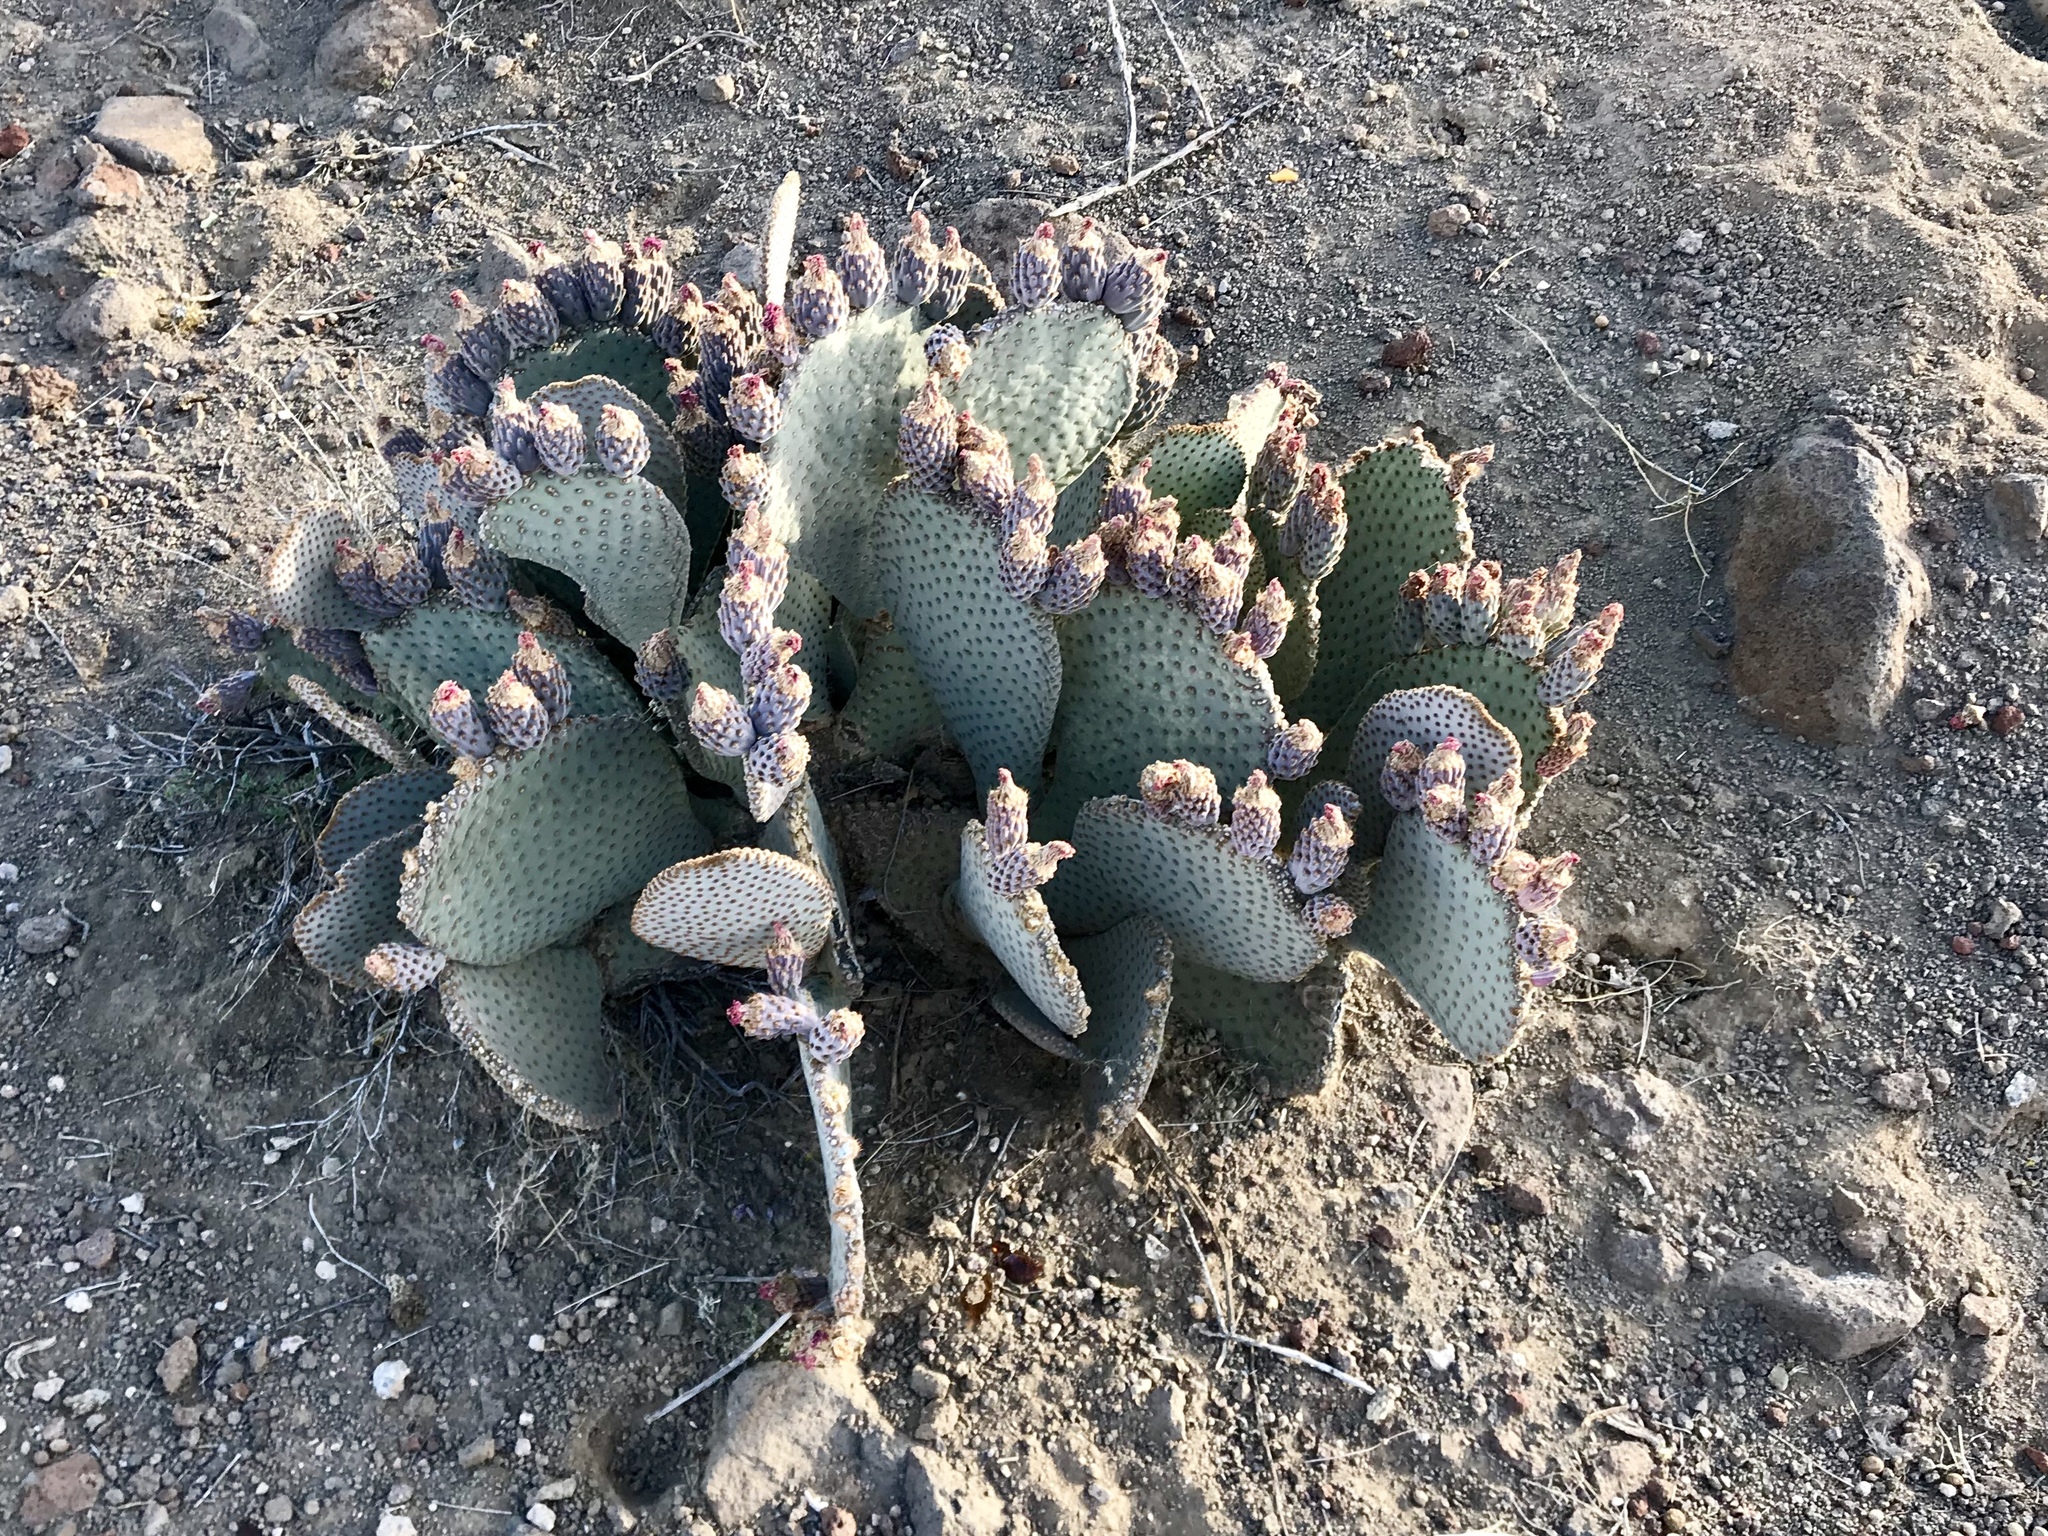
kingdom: Plantae
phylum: Tracheophyta
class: Magnoliopsida
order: Caryophyllales
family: Cactaceae
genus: Opuntia
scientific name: Opuntia basilaris
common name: Beavertail prickly-pear
